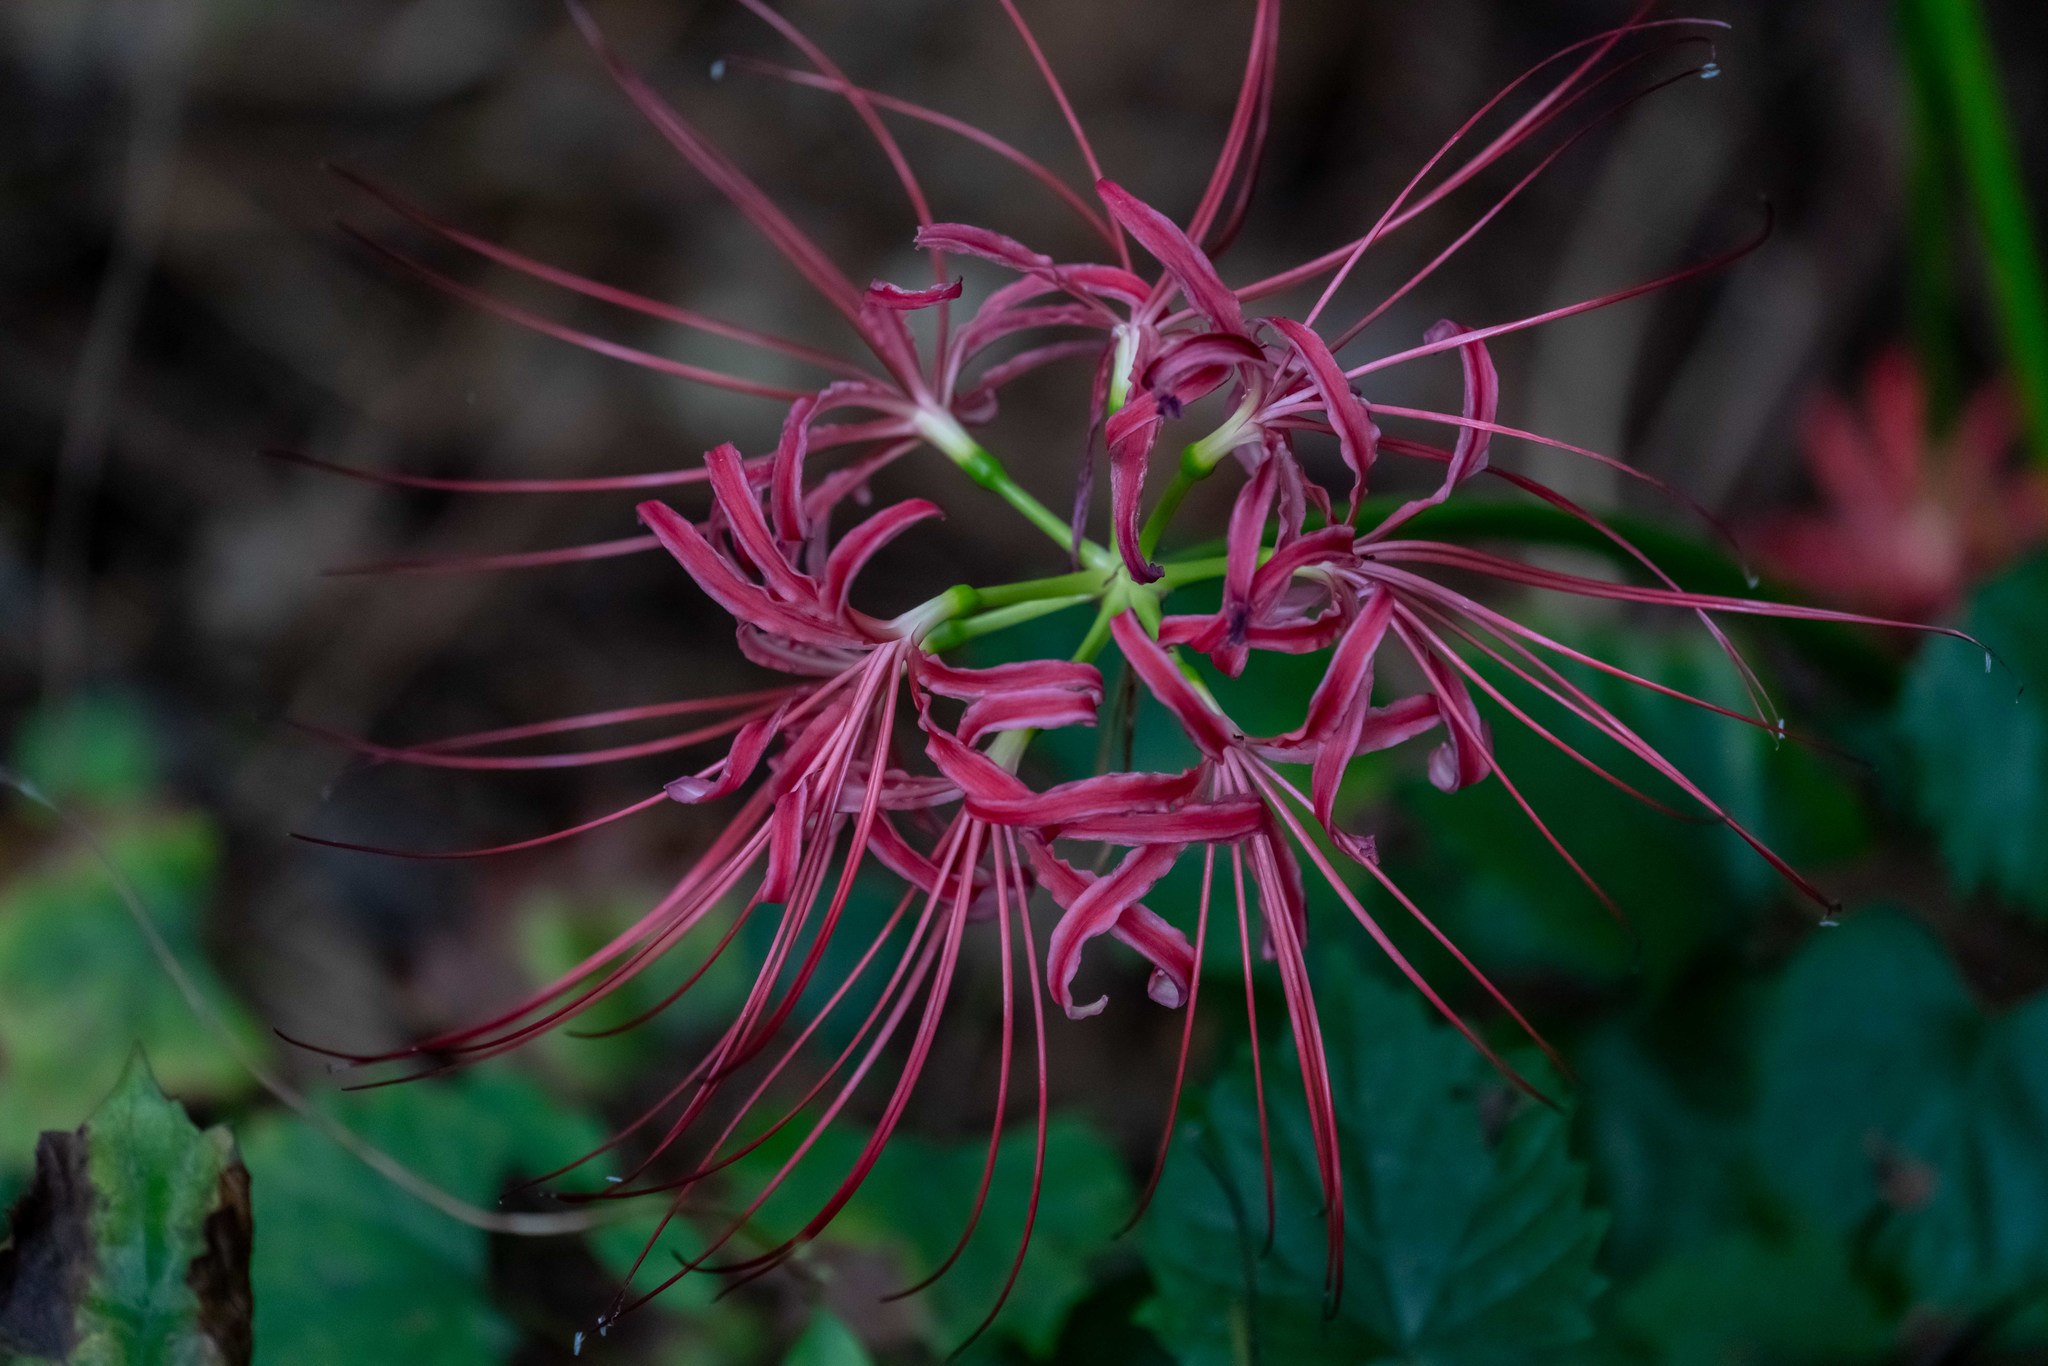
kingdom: Plantae
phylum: Tracheophyta
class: Liliopsida
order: Asparagales
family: Amaryllidaceae
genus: Lycoris
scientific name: Lycoris radiata
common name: Red spider lily
